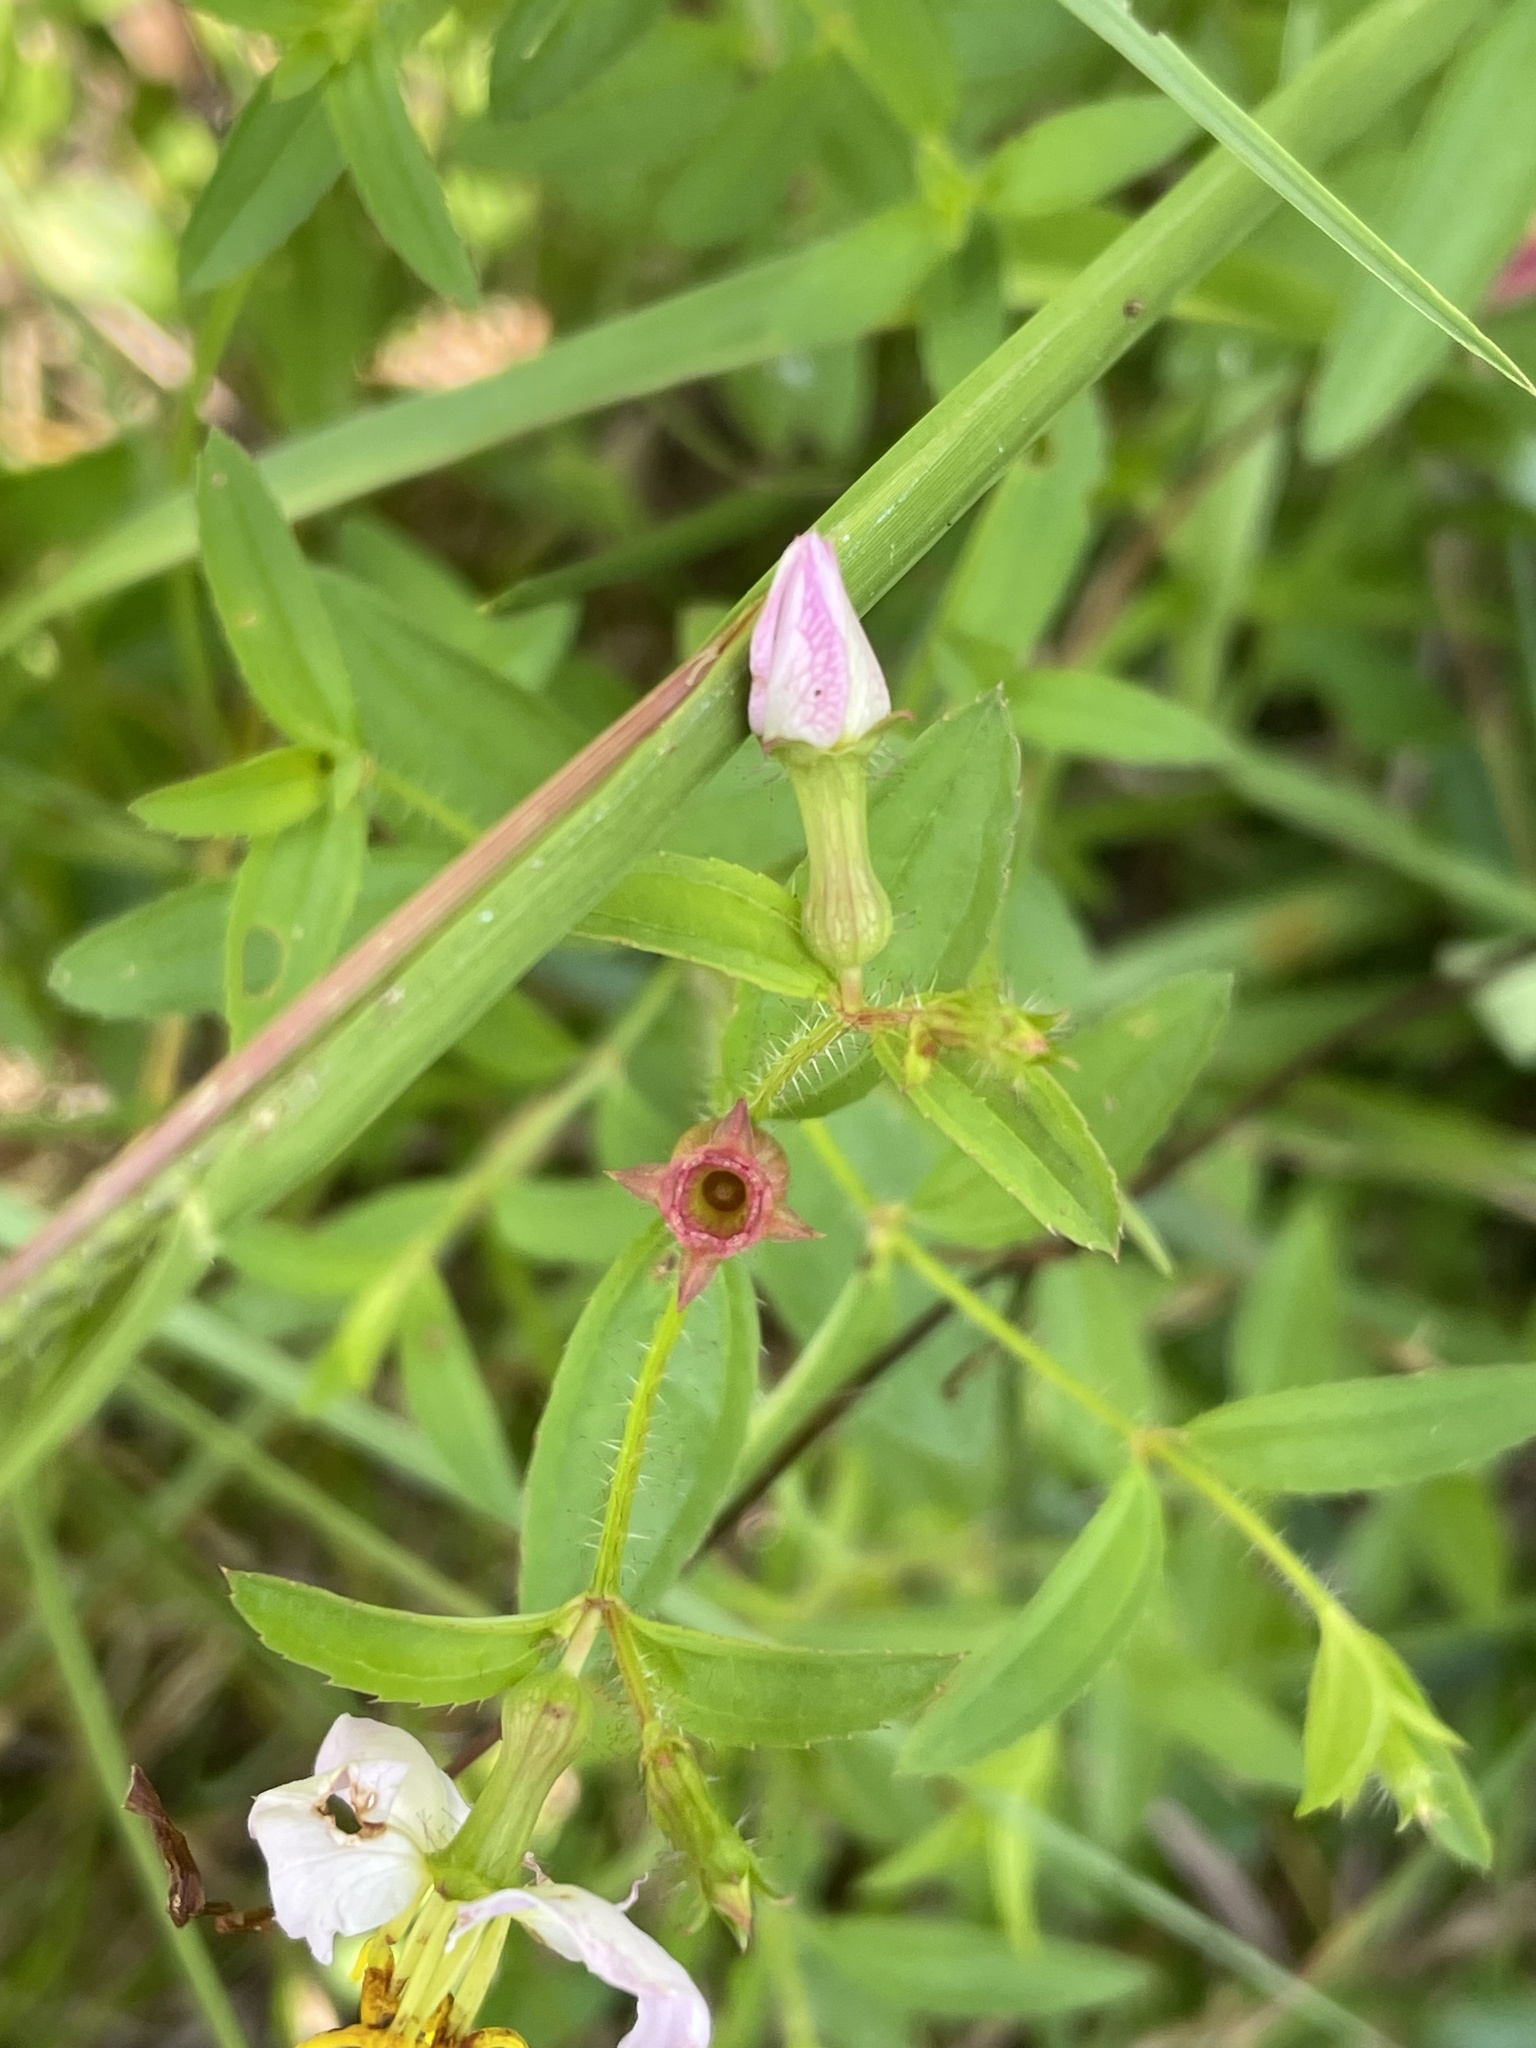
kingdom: Plantae
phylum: Tracheophyta
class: Magnoliopsida
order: Myrtales
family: Melastomataceae
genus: Rhexia
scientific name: Rhexia mariana
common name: Dull meadow-pitcher
